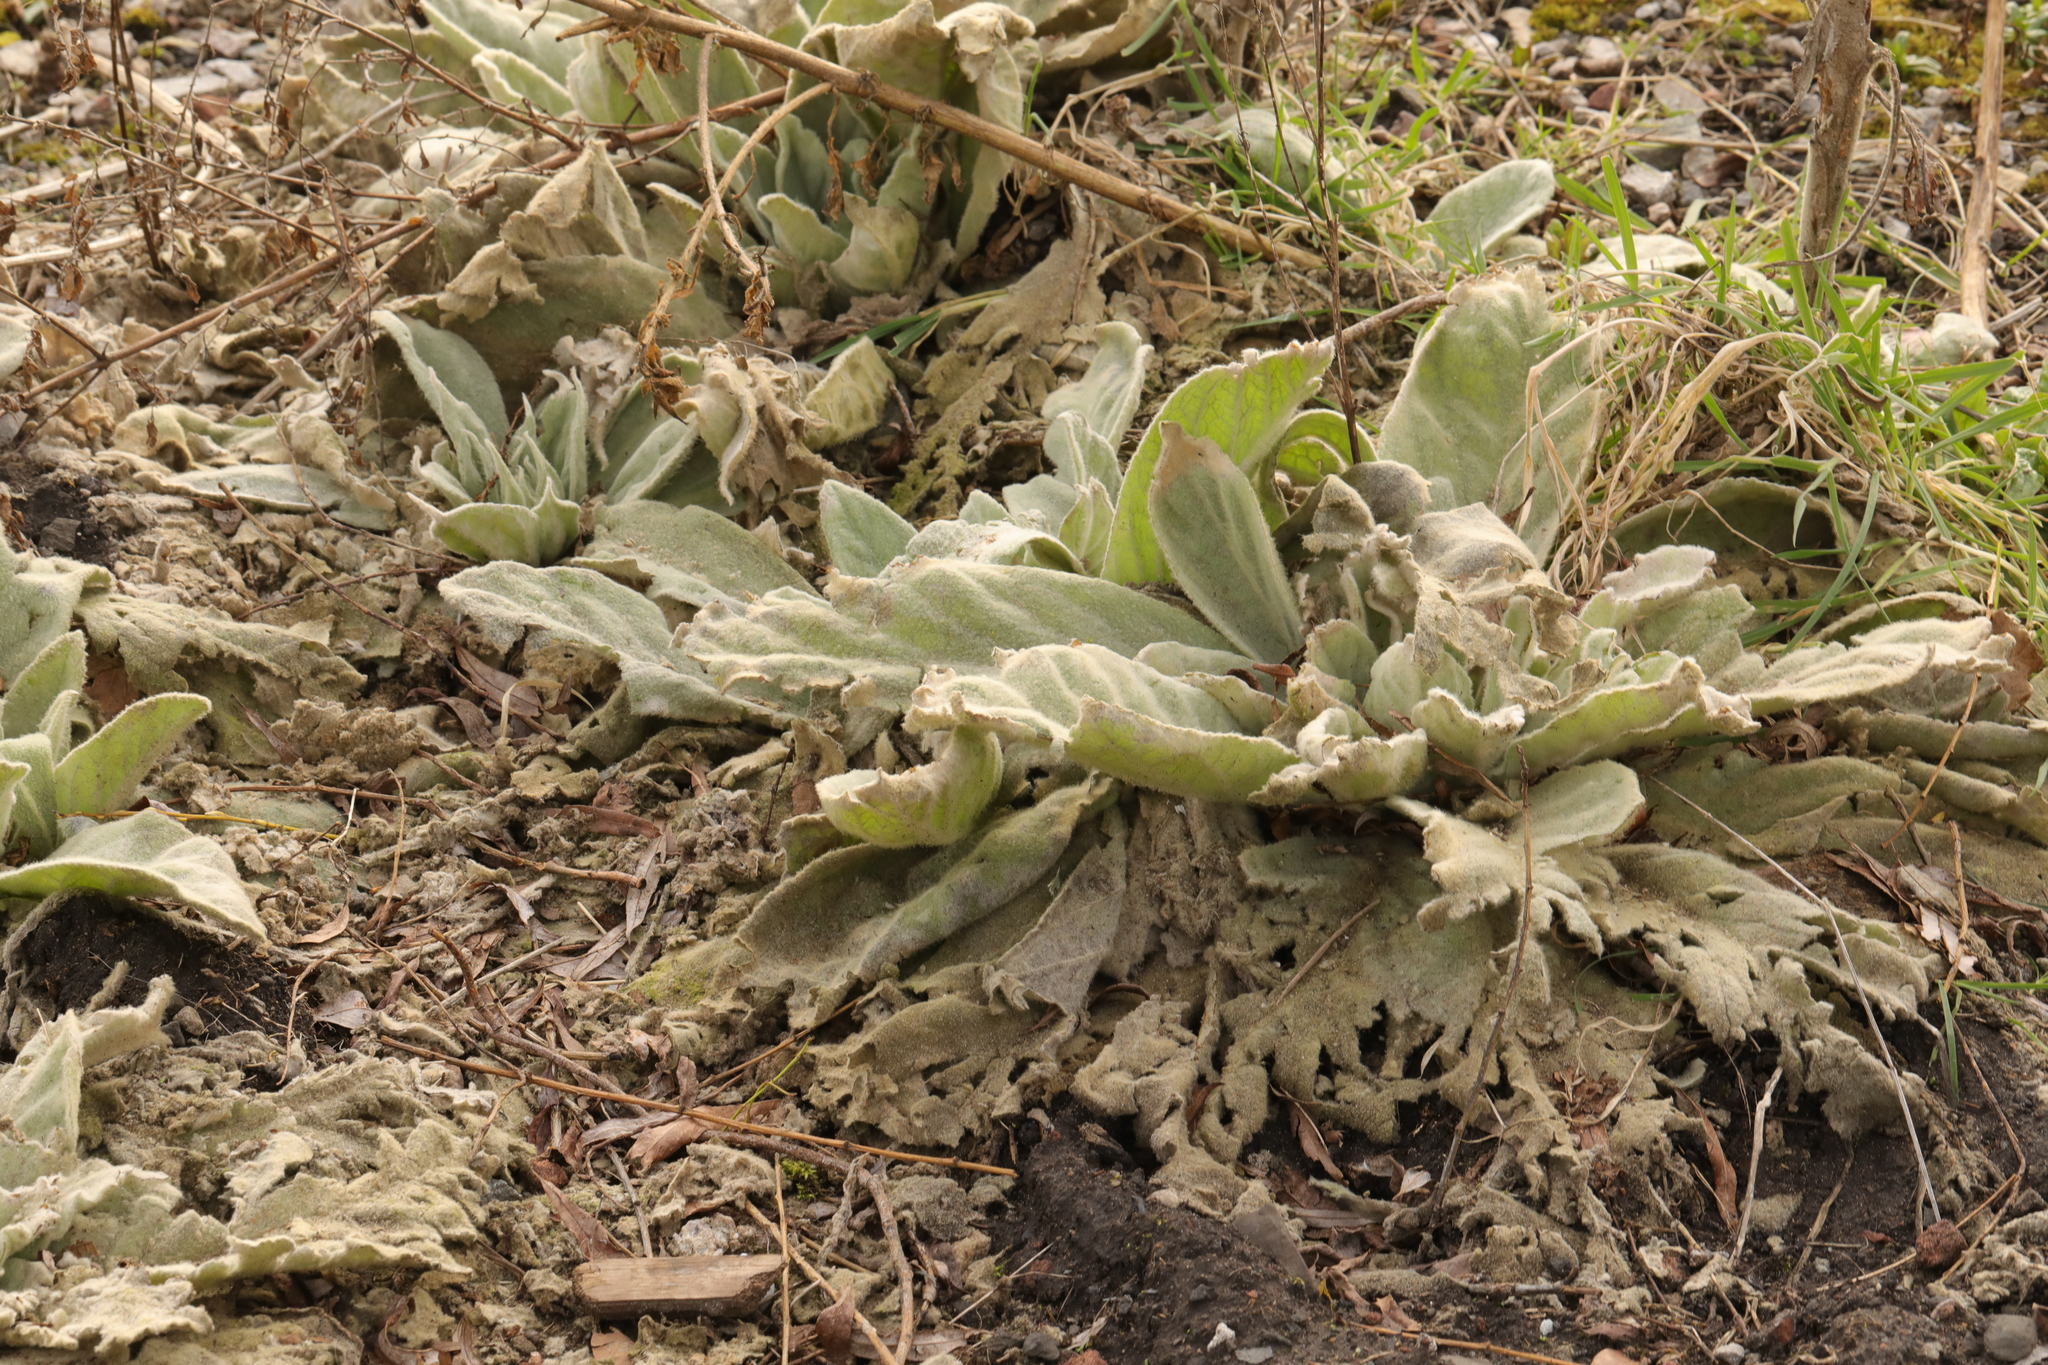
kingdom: Plantae
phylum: Tracheophyta
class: Magnoliopsida
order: Lamiales
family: Scrophulariaceae
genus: Verbascum
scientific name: Verbascum thapsus
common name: Common mullein
